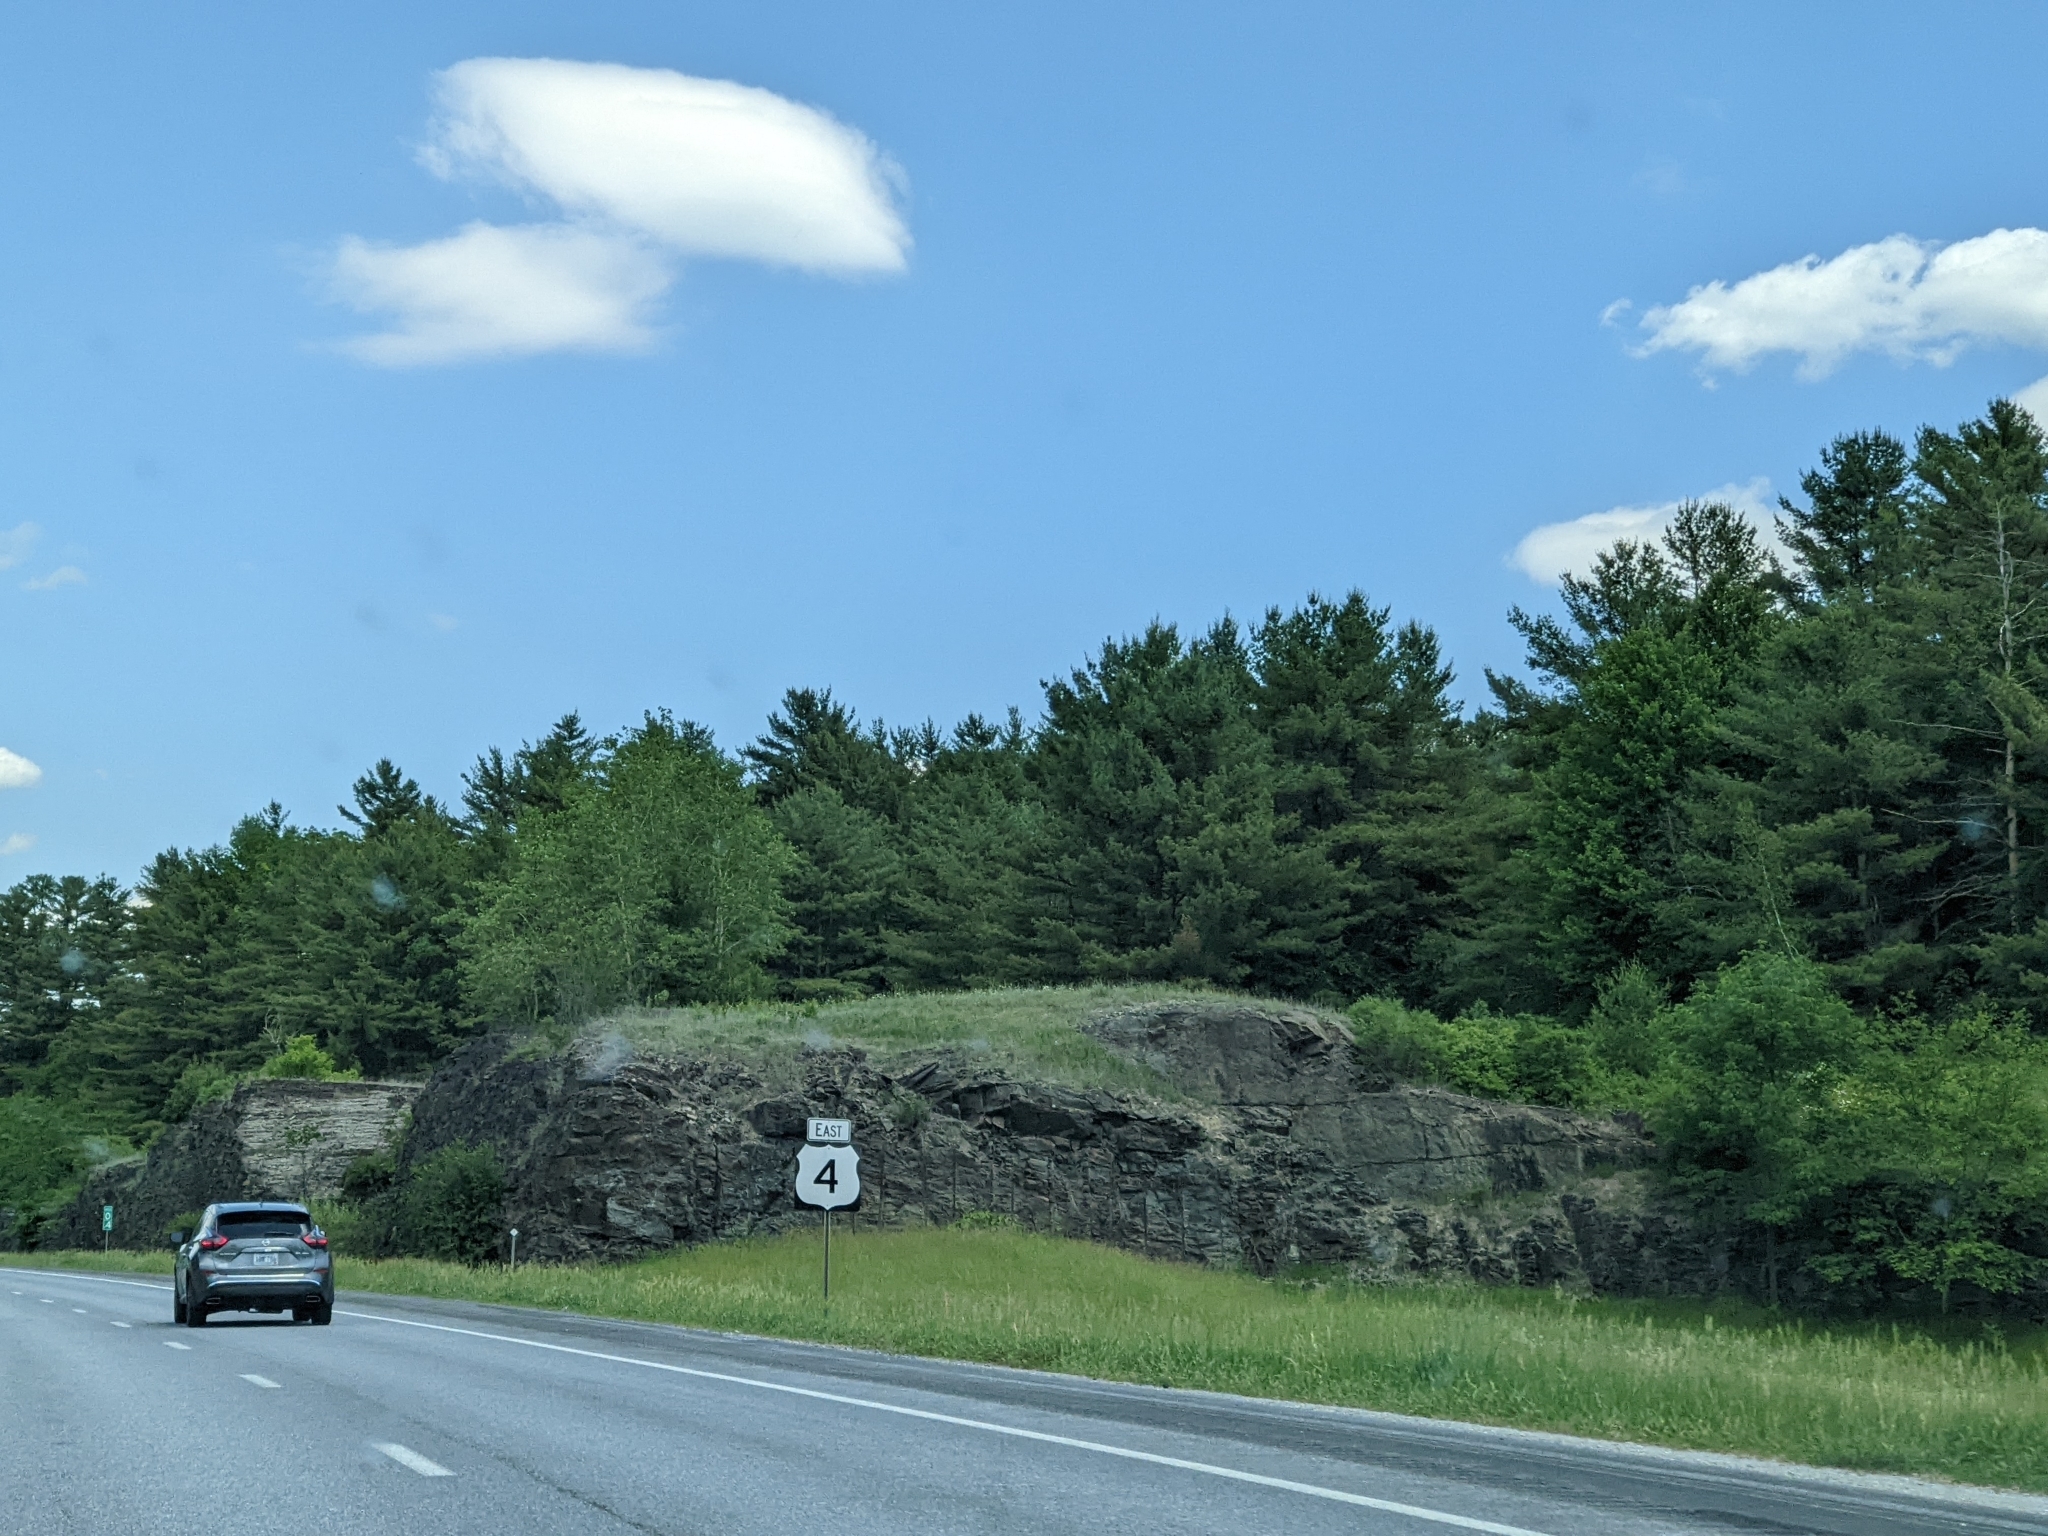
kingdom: Plantae
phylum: Tracheophyta
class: Pinopsida
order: Pinales
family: Pinaceae
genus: Pinus
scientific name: Pinus strobus
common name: Weymouth pine
